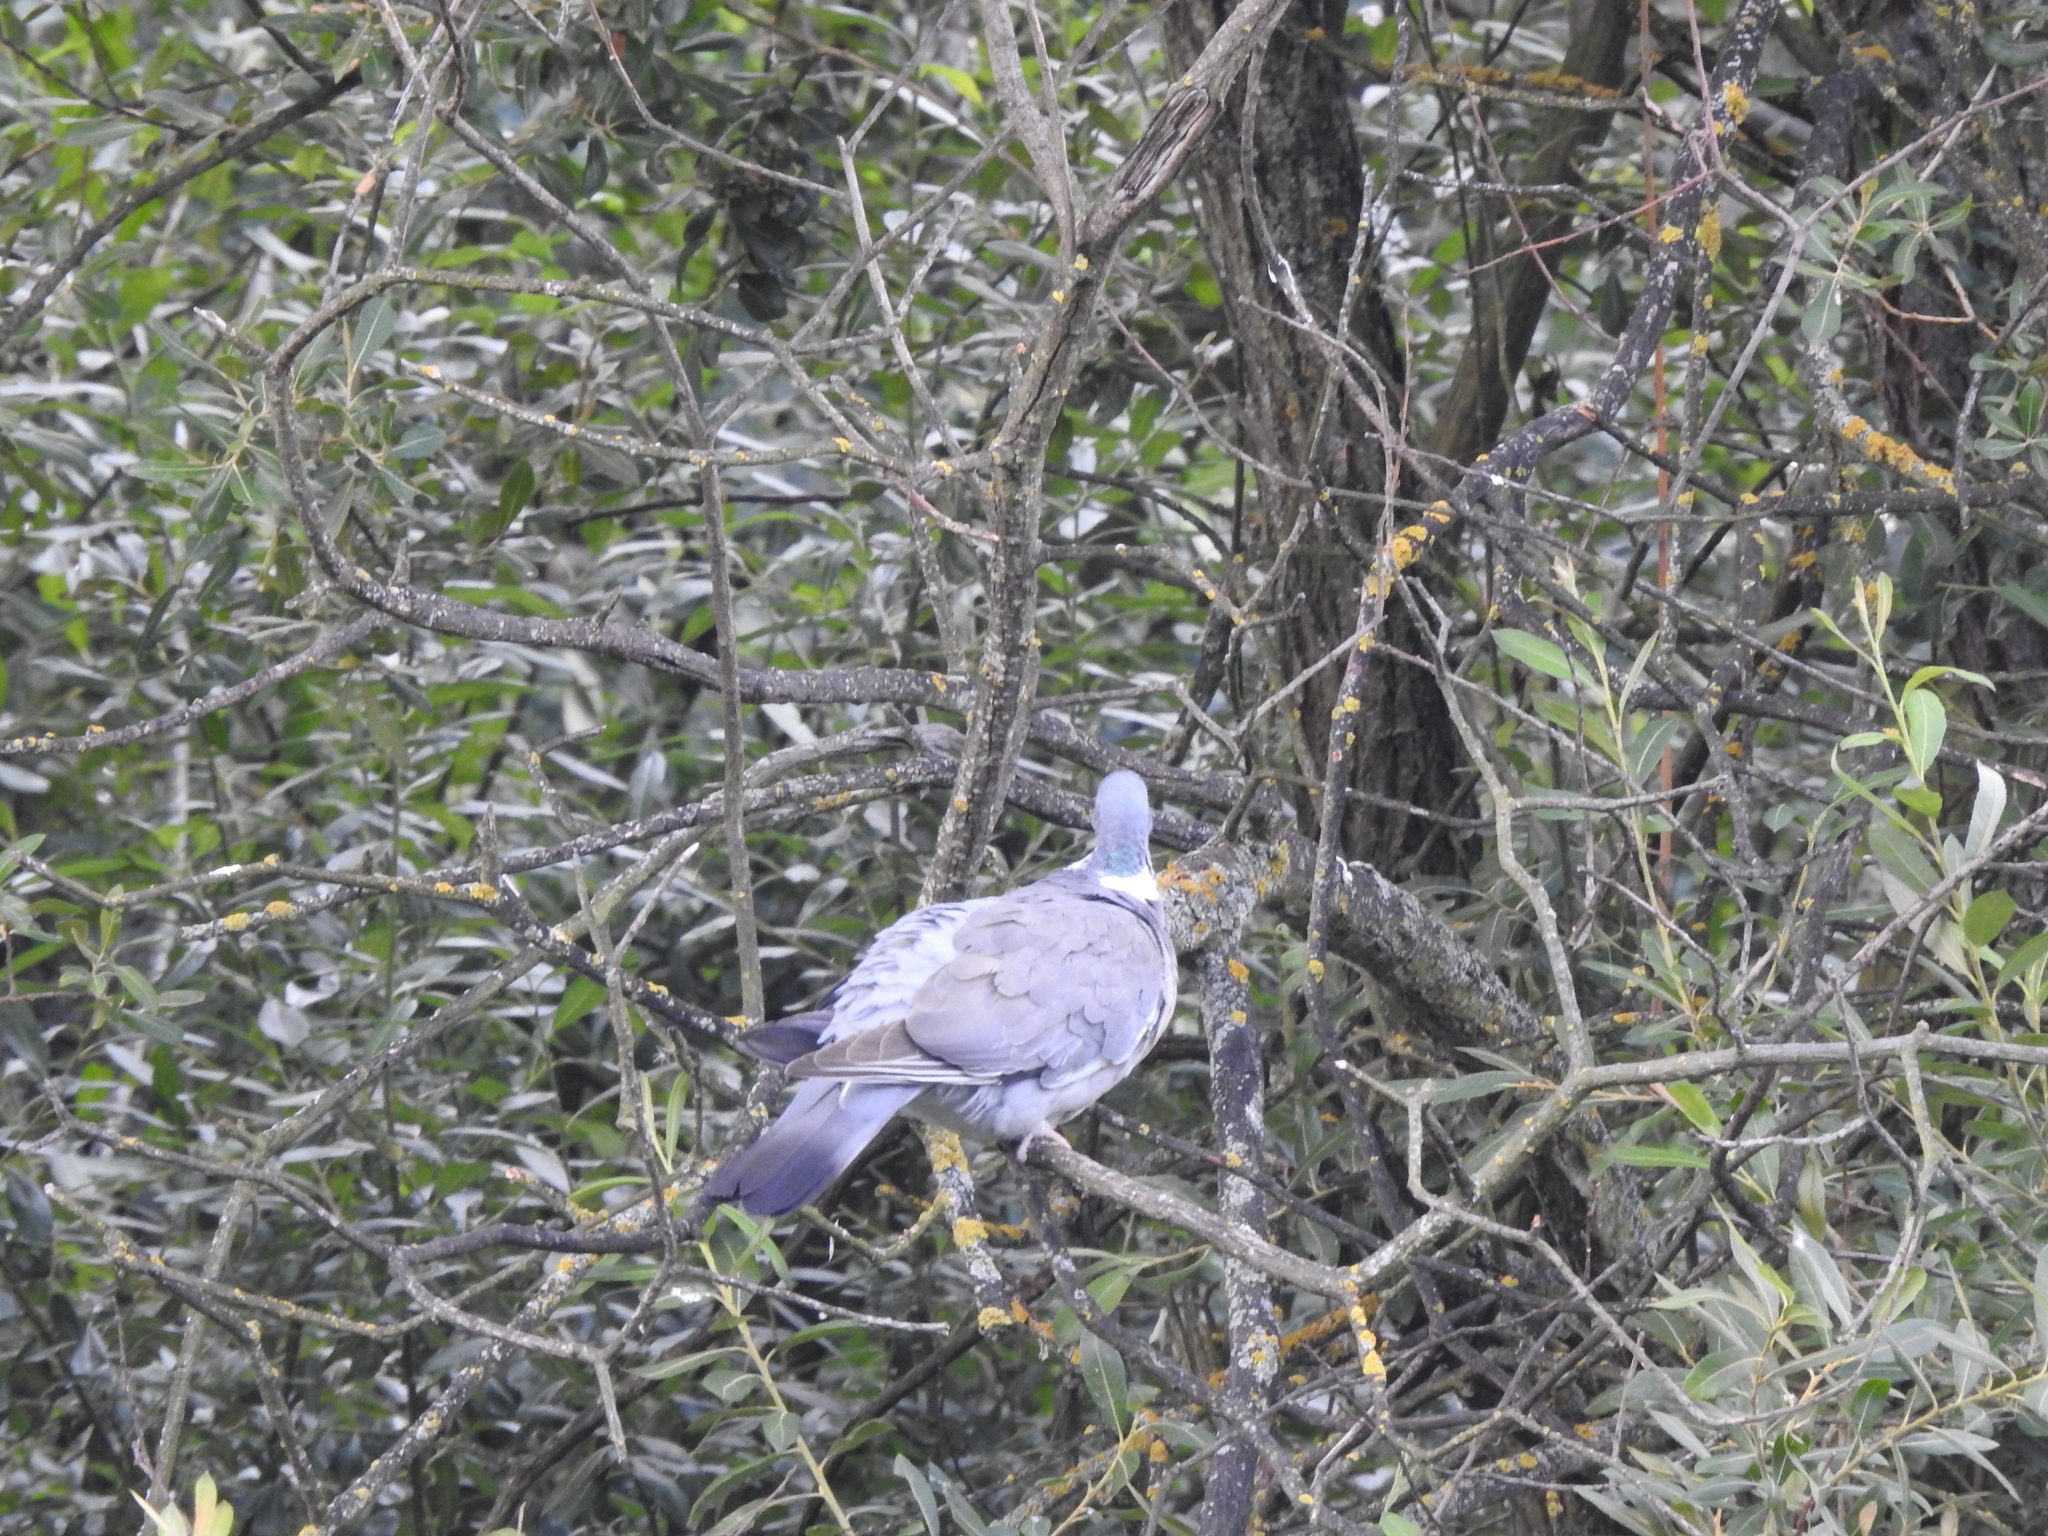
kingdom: Animalia
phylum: Chordata
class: Aves
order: Columbiformes
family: Columbidae
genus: Columba
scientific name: Columba palumbus
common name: Common wood pigeon
